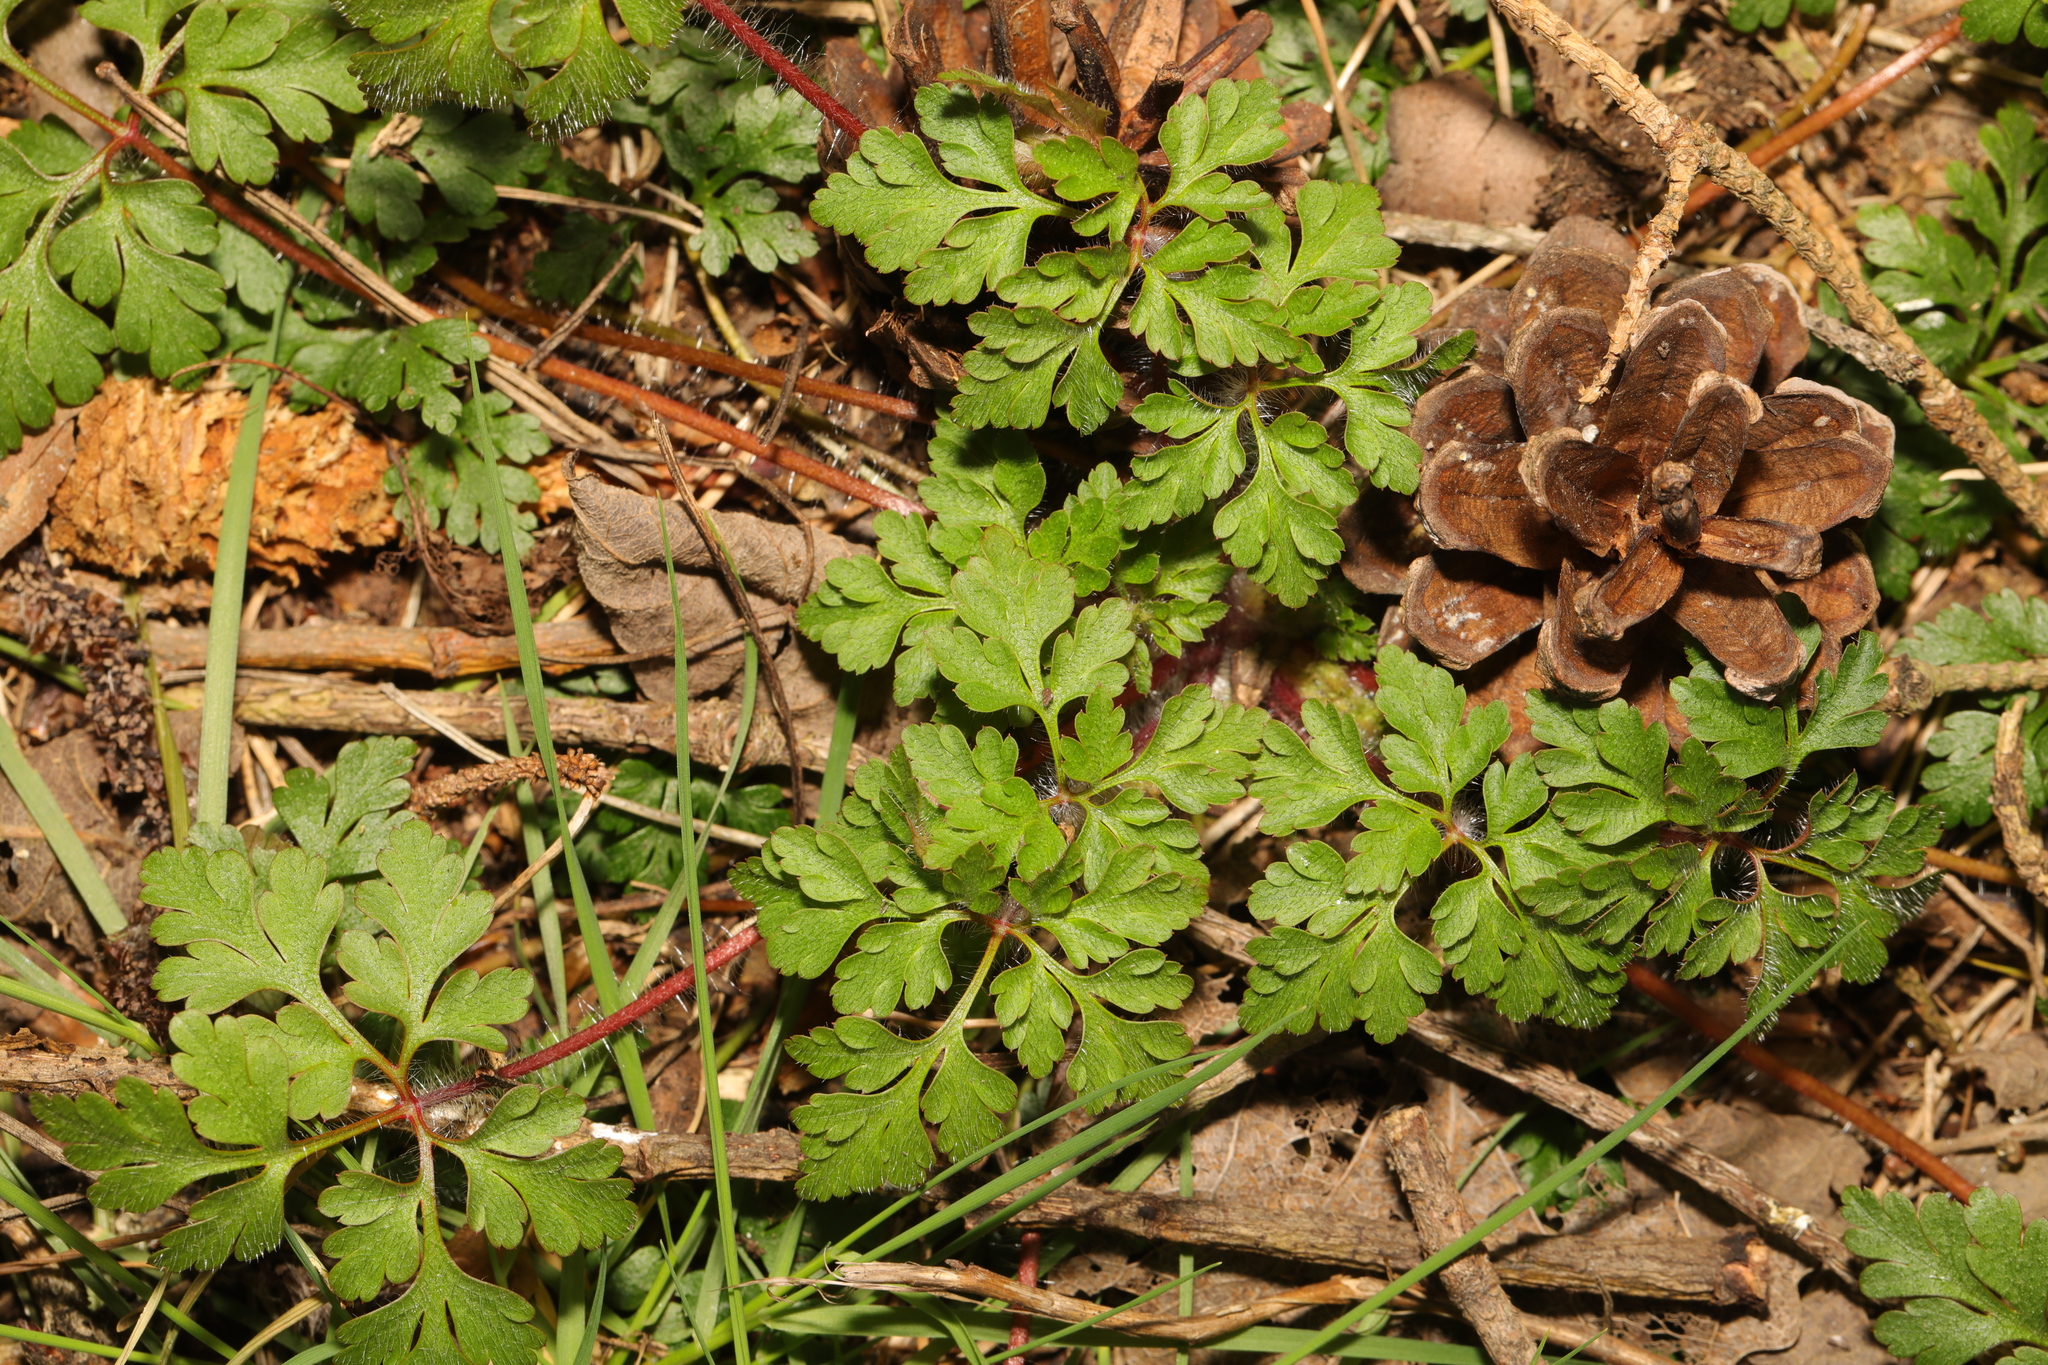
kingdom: Plantae
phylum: Tracheophyta
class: Magnoliopsida
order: Geraniales
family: Geraniaceae
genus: Geranium
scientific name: Geranium robertianum
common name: Herb-robert
